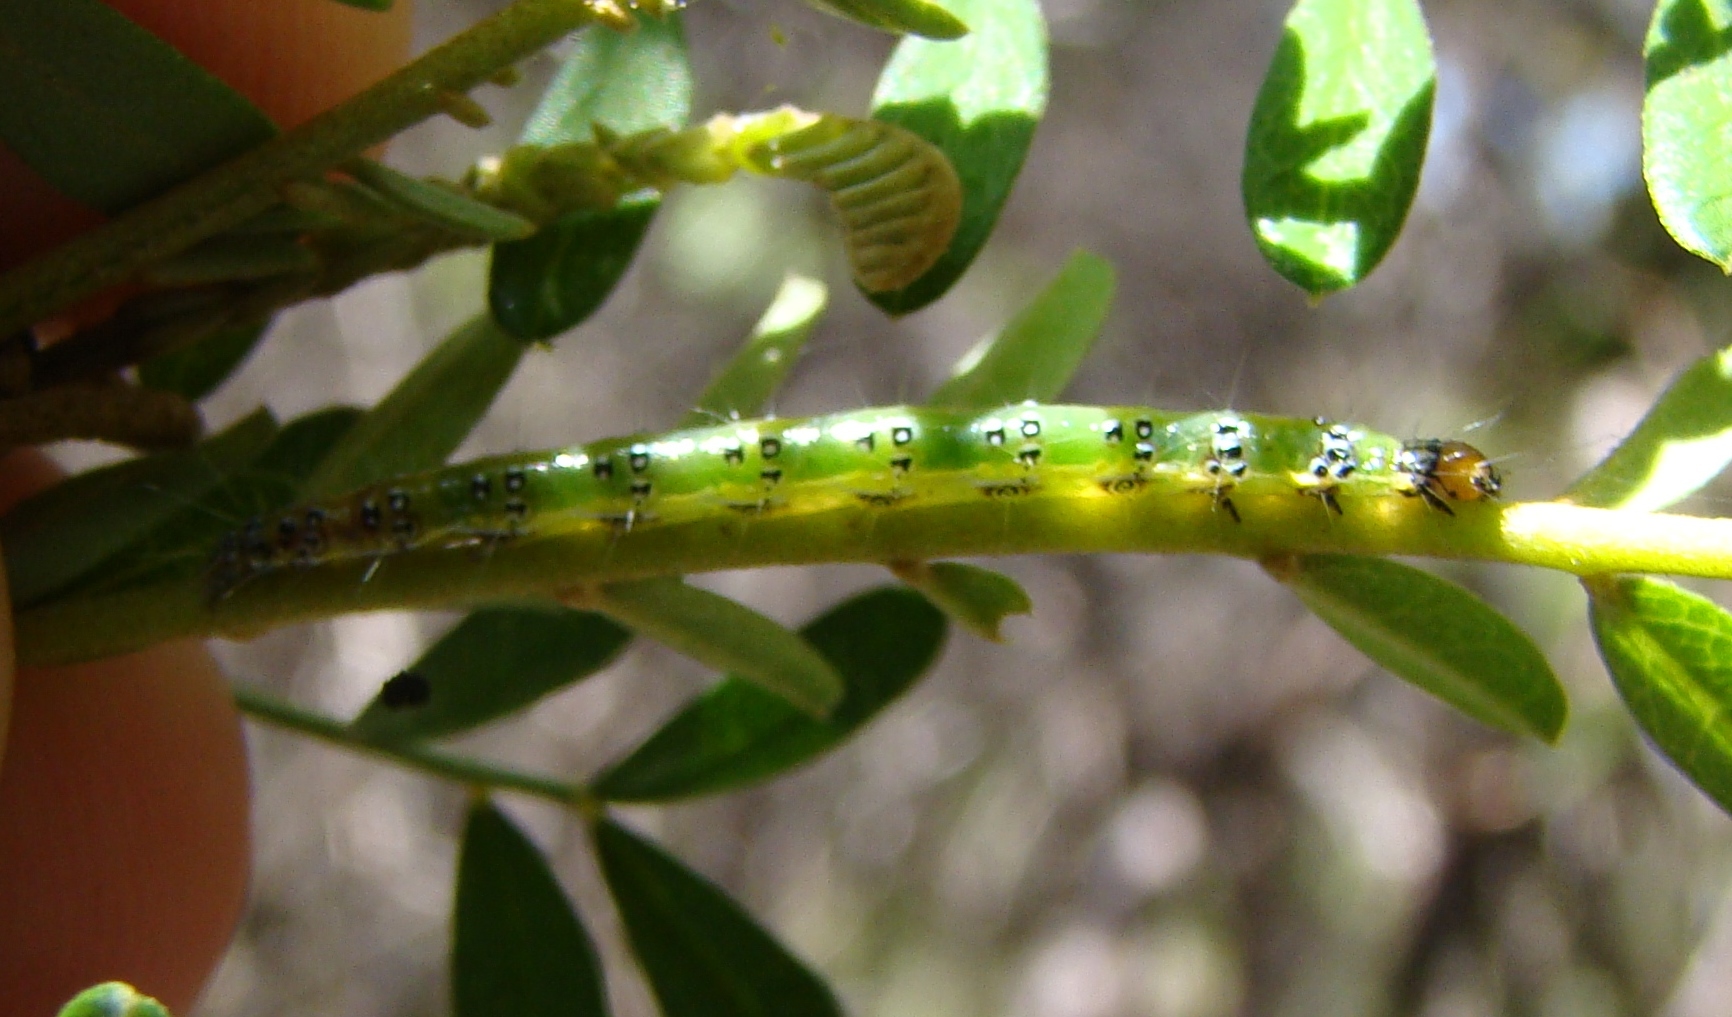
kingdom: Animalia
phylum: Arthropoda
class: Insecta
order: Lepidoptera
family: Crambidae
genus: Uresiphita
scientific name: Uresiphita
